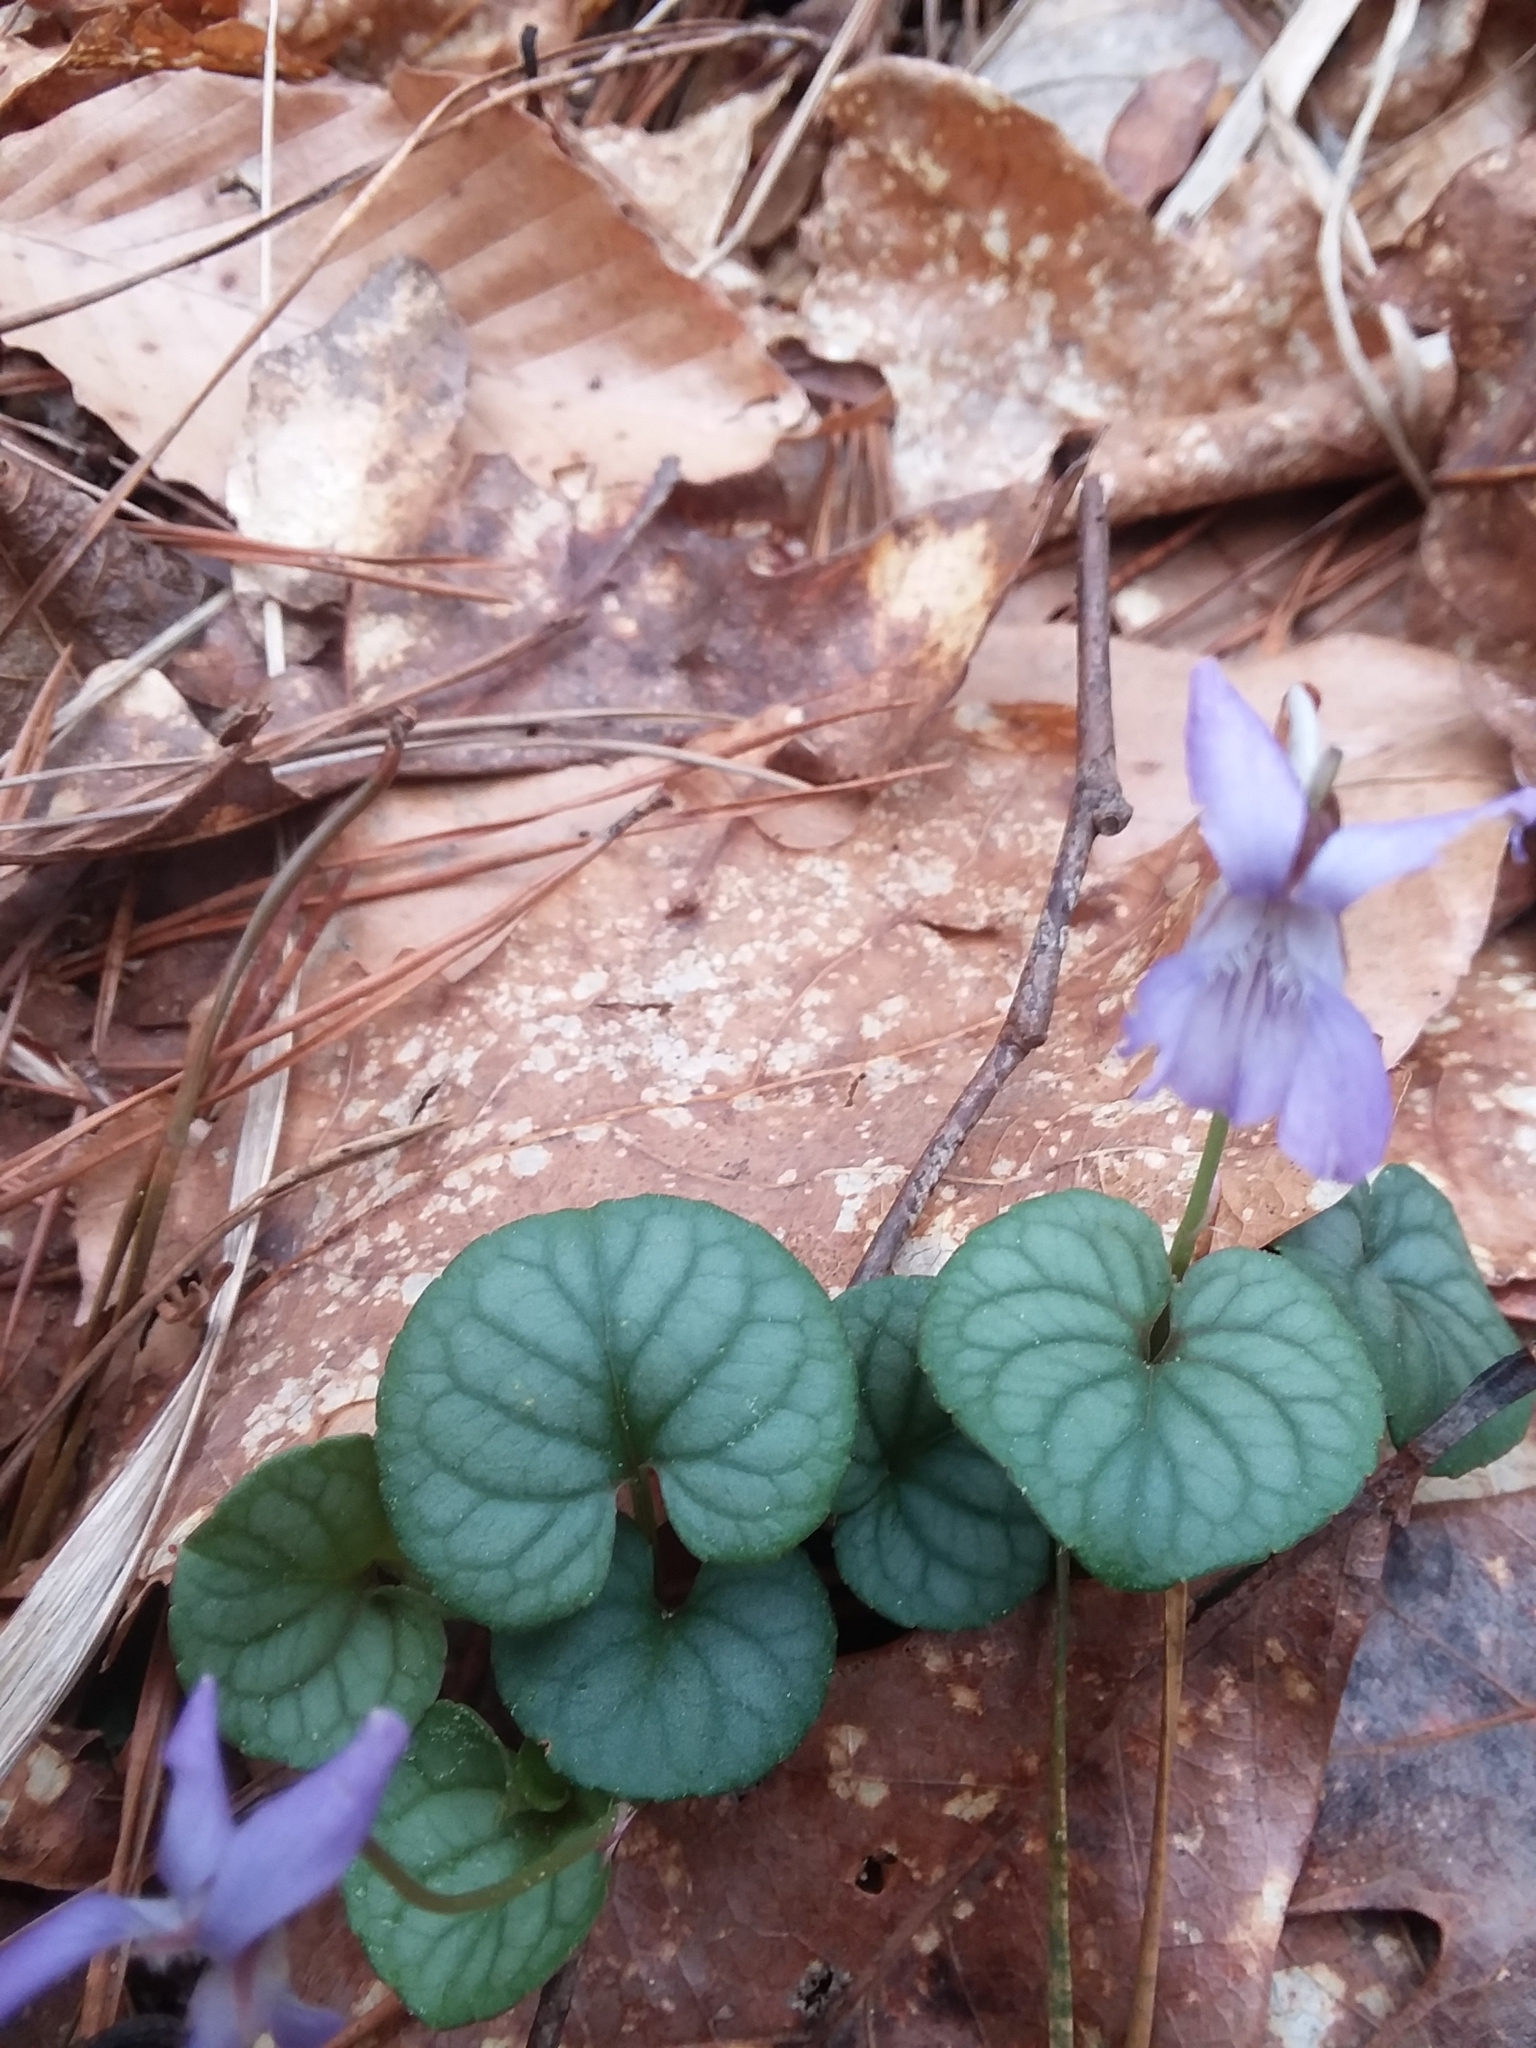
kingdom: Plantae
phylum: Tracheophyta
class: Magnoliopsida
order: Malpighiales
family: Violaceae
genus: Viola
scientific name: Viola walteri
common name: Prostrate southern violet
